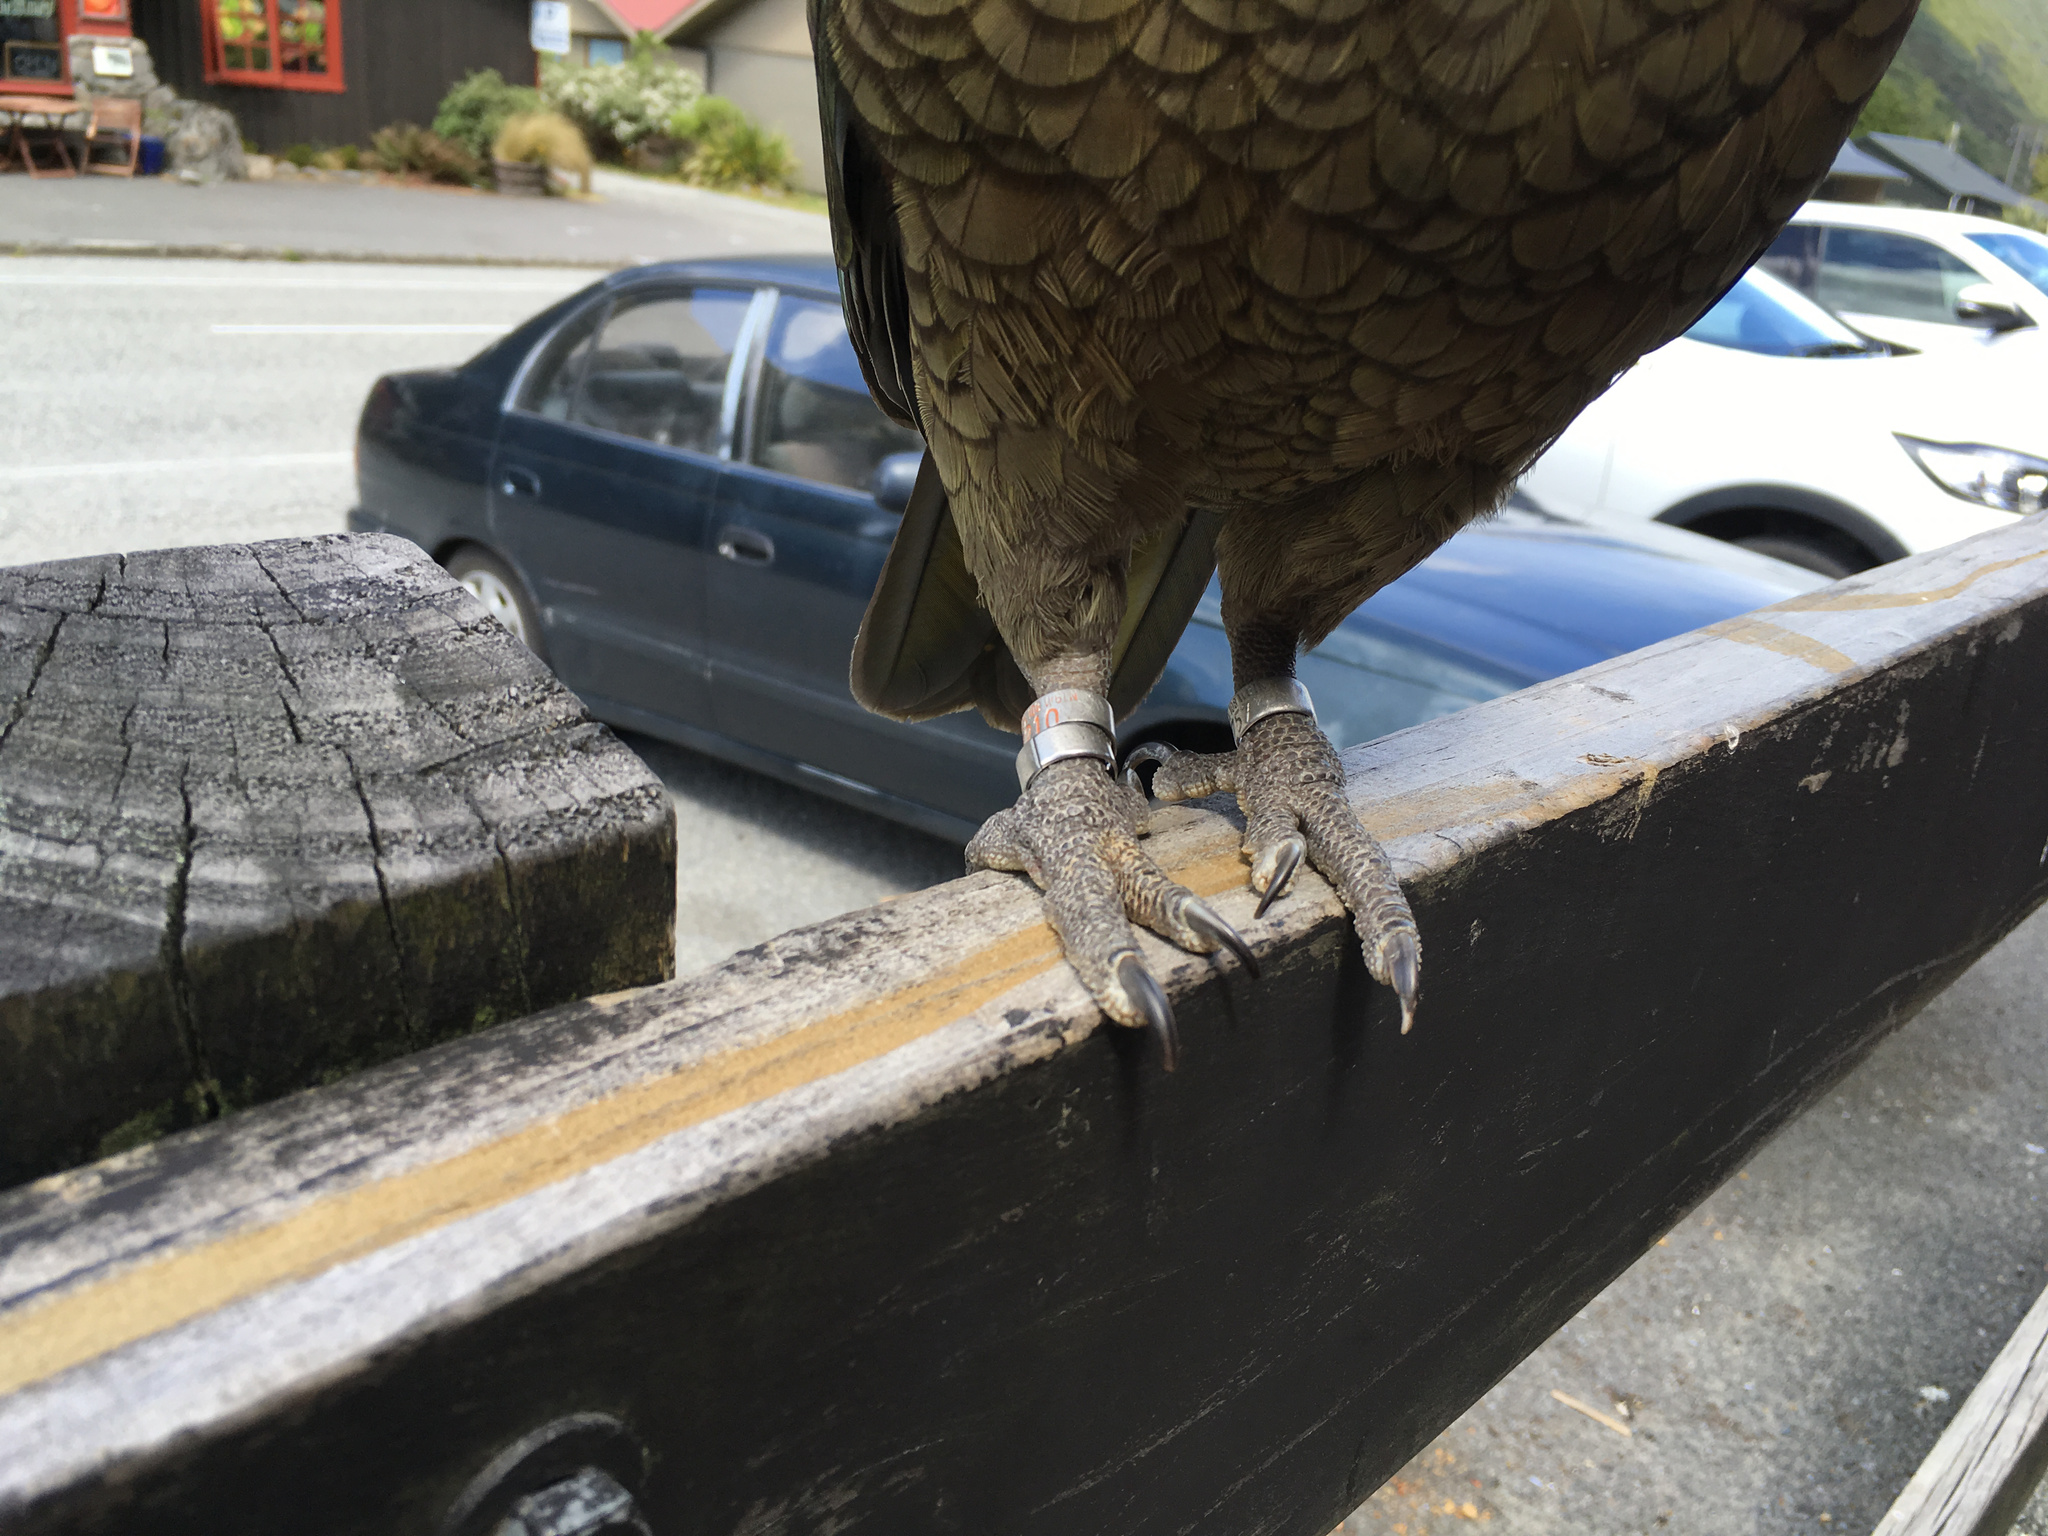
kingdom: Animalia
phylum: Chordata
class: Aves
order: Psittaciformes
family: Psittacidae
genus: Nestor
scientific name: Nestor notabilis
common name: Kea
